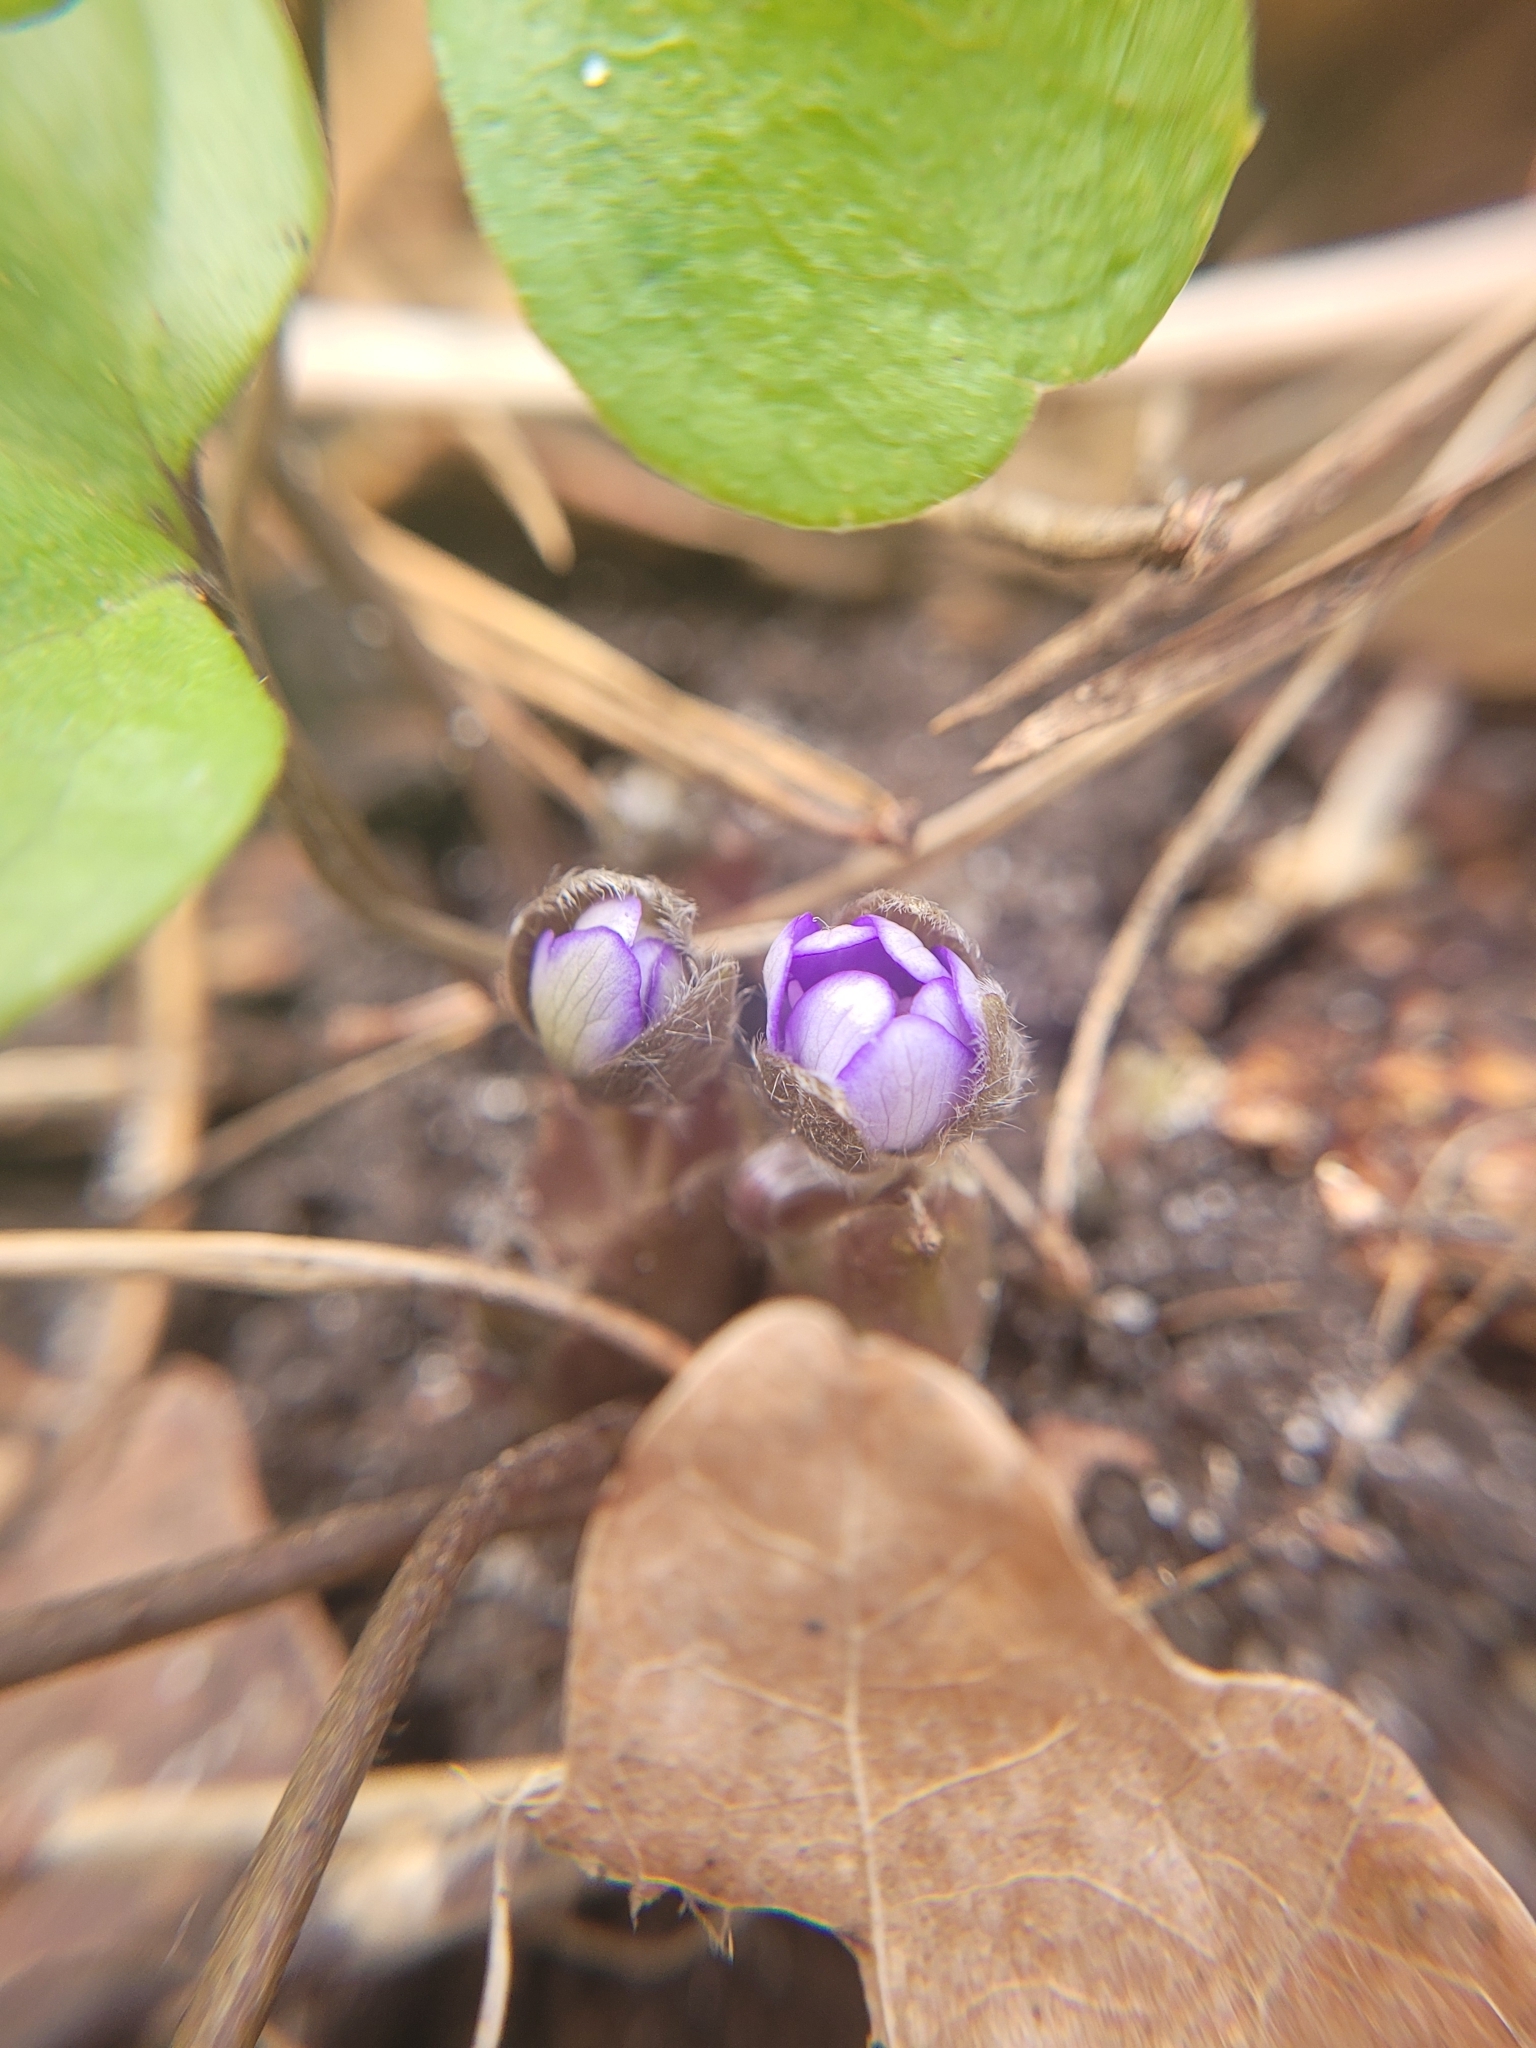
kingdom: Plantae
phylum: Tracheophyta
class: Magnoliopsida
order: Ranunculales
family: Ranunculaceae
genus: Hepatica
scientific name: Hepatica nobilis
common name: Liverleaf
